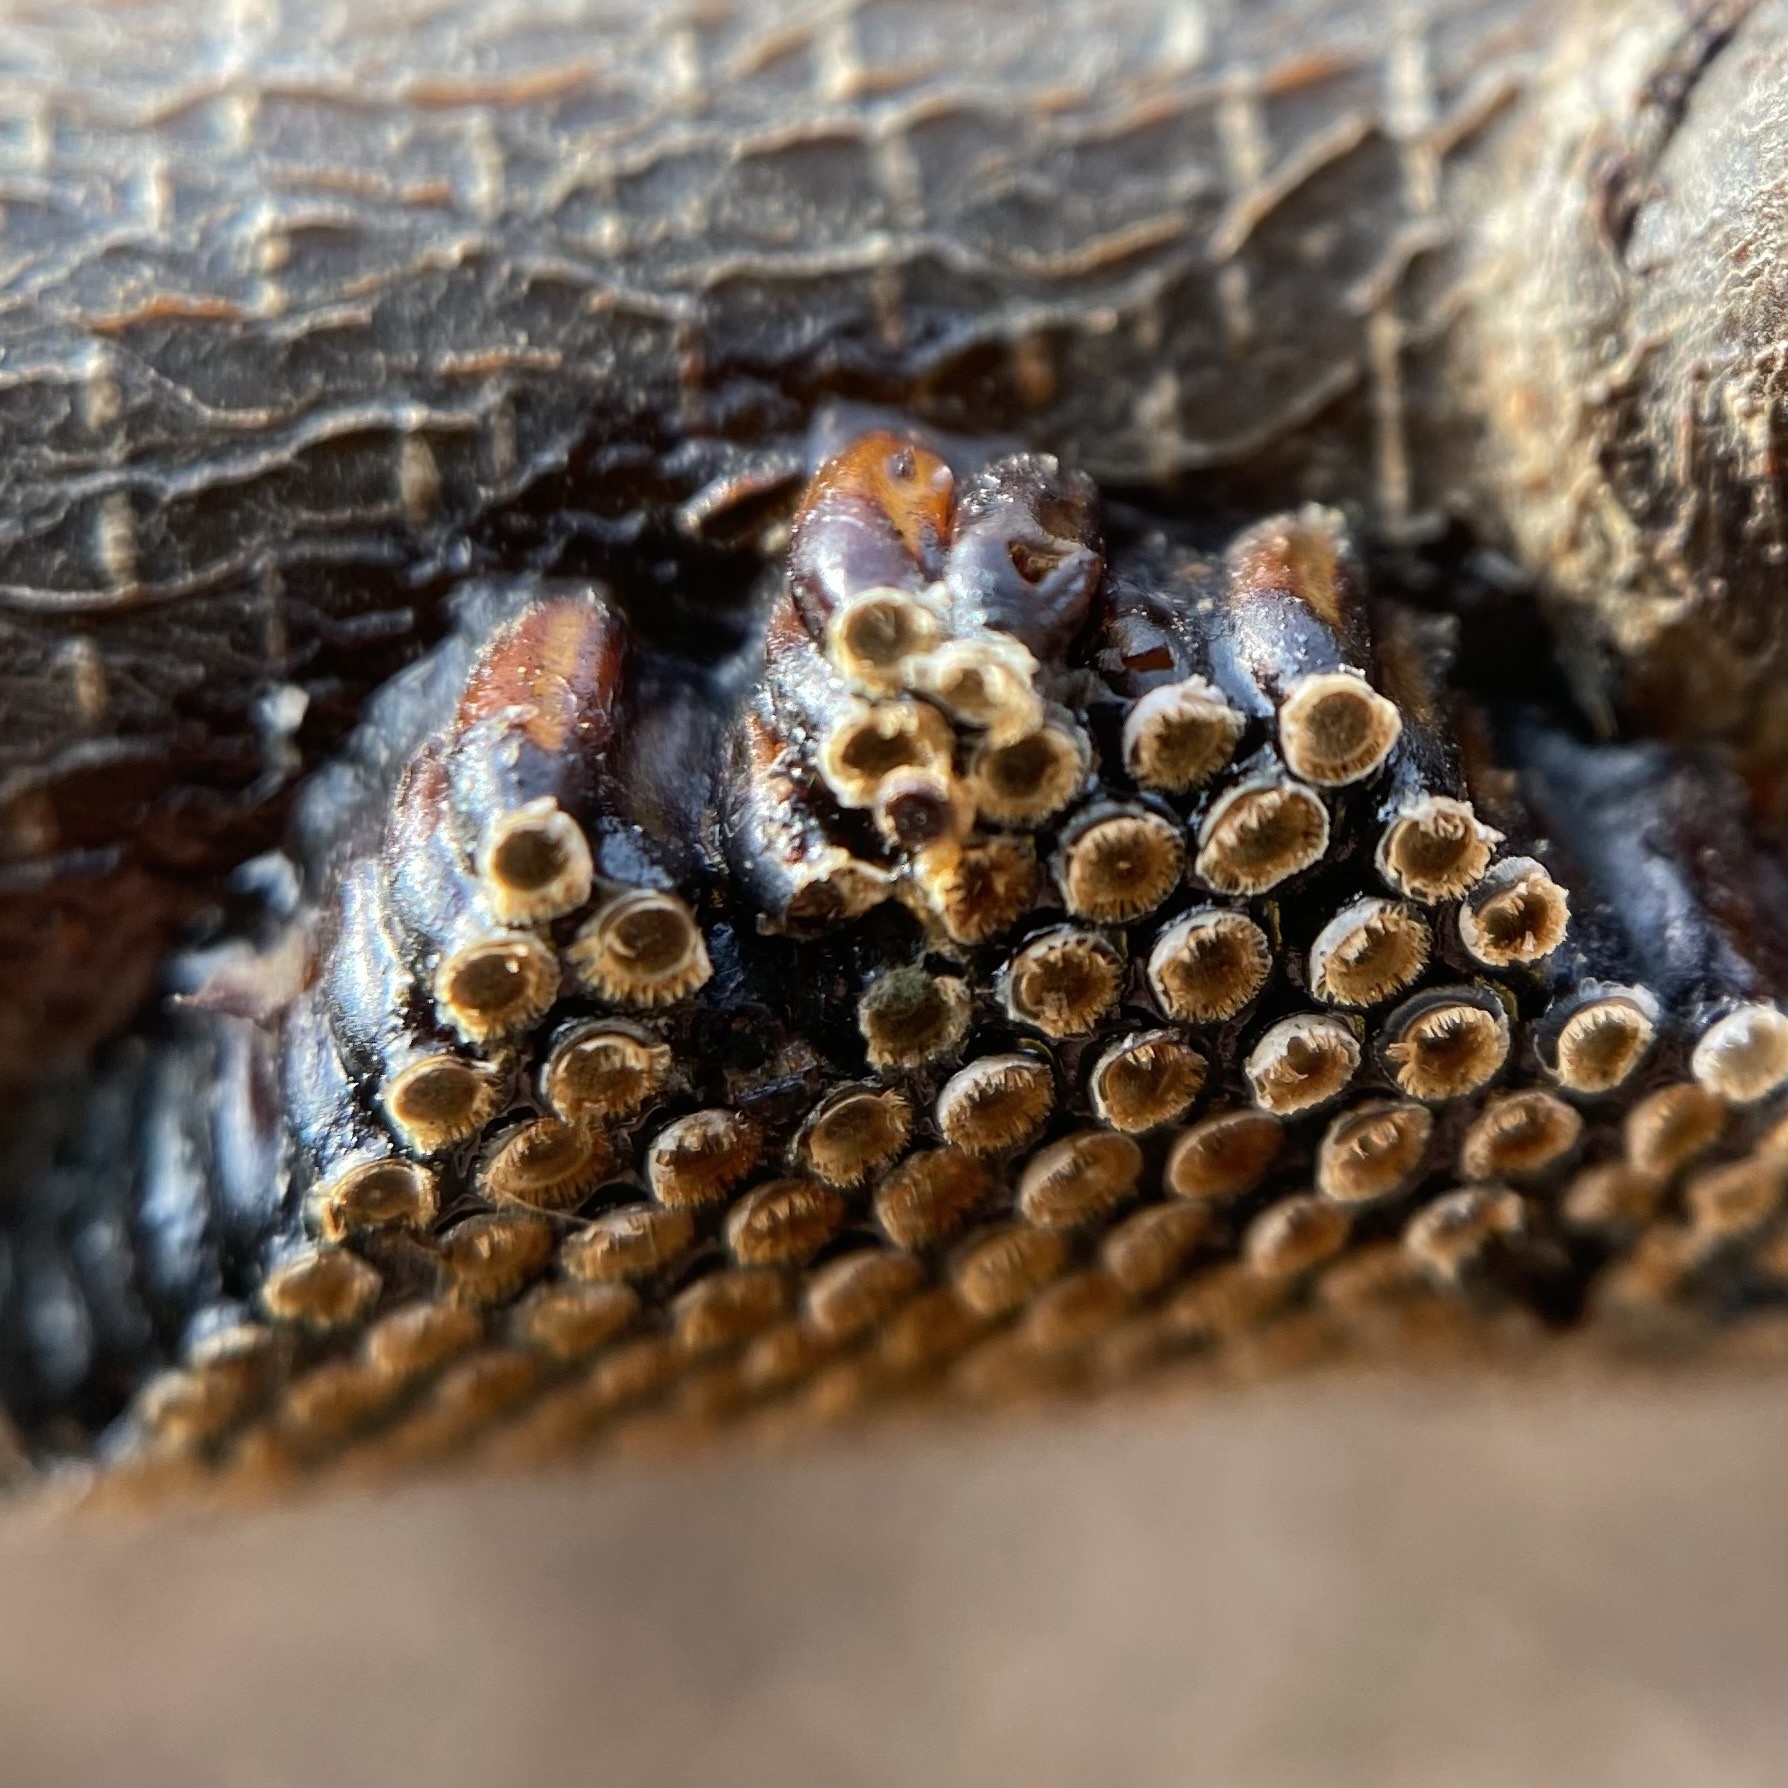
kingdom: Animalia
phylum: Arthropoda
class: Insecta
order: Hemiptera
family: Reduviidae
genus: Arilus
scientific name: Arilus cristatus
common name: North american wheel bug
